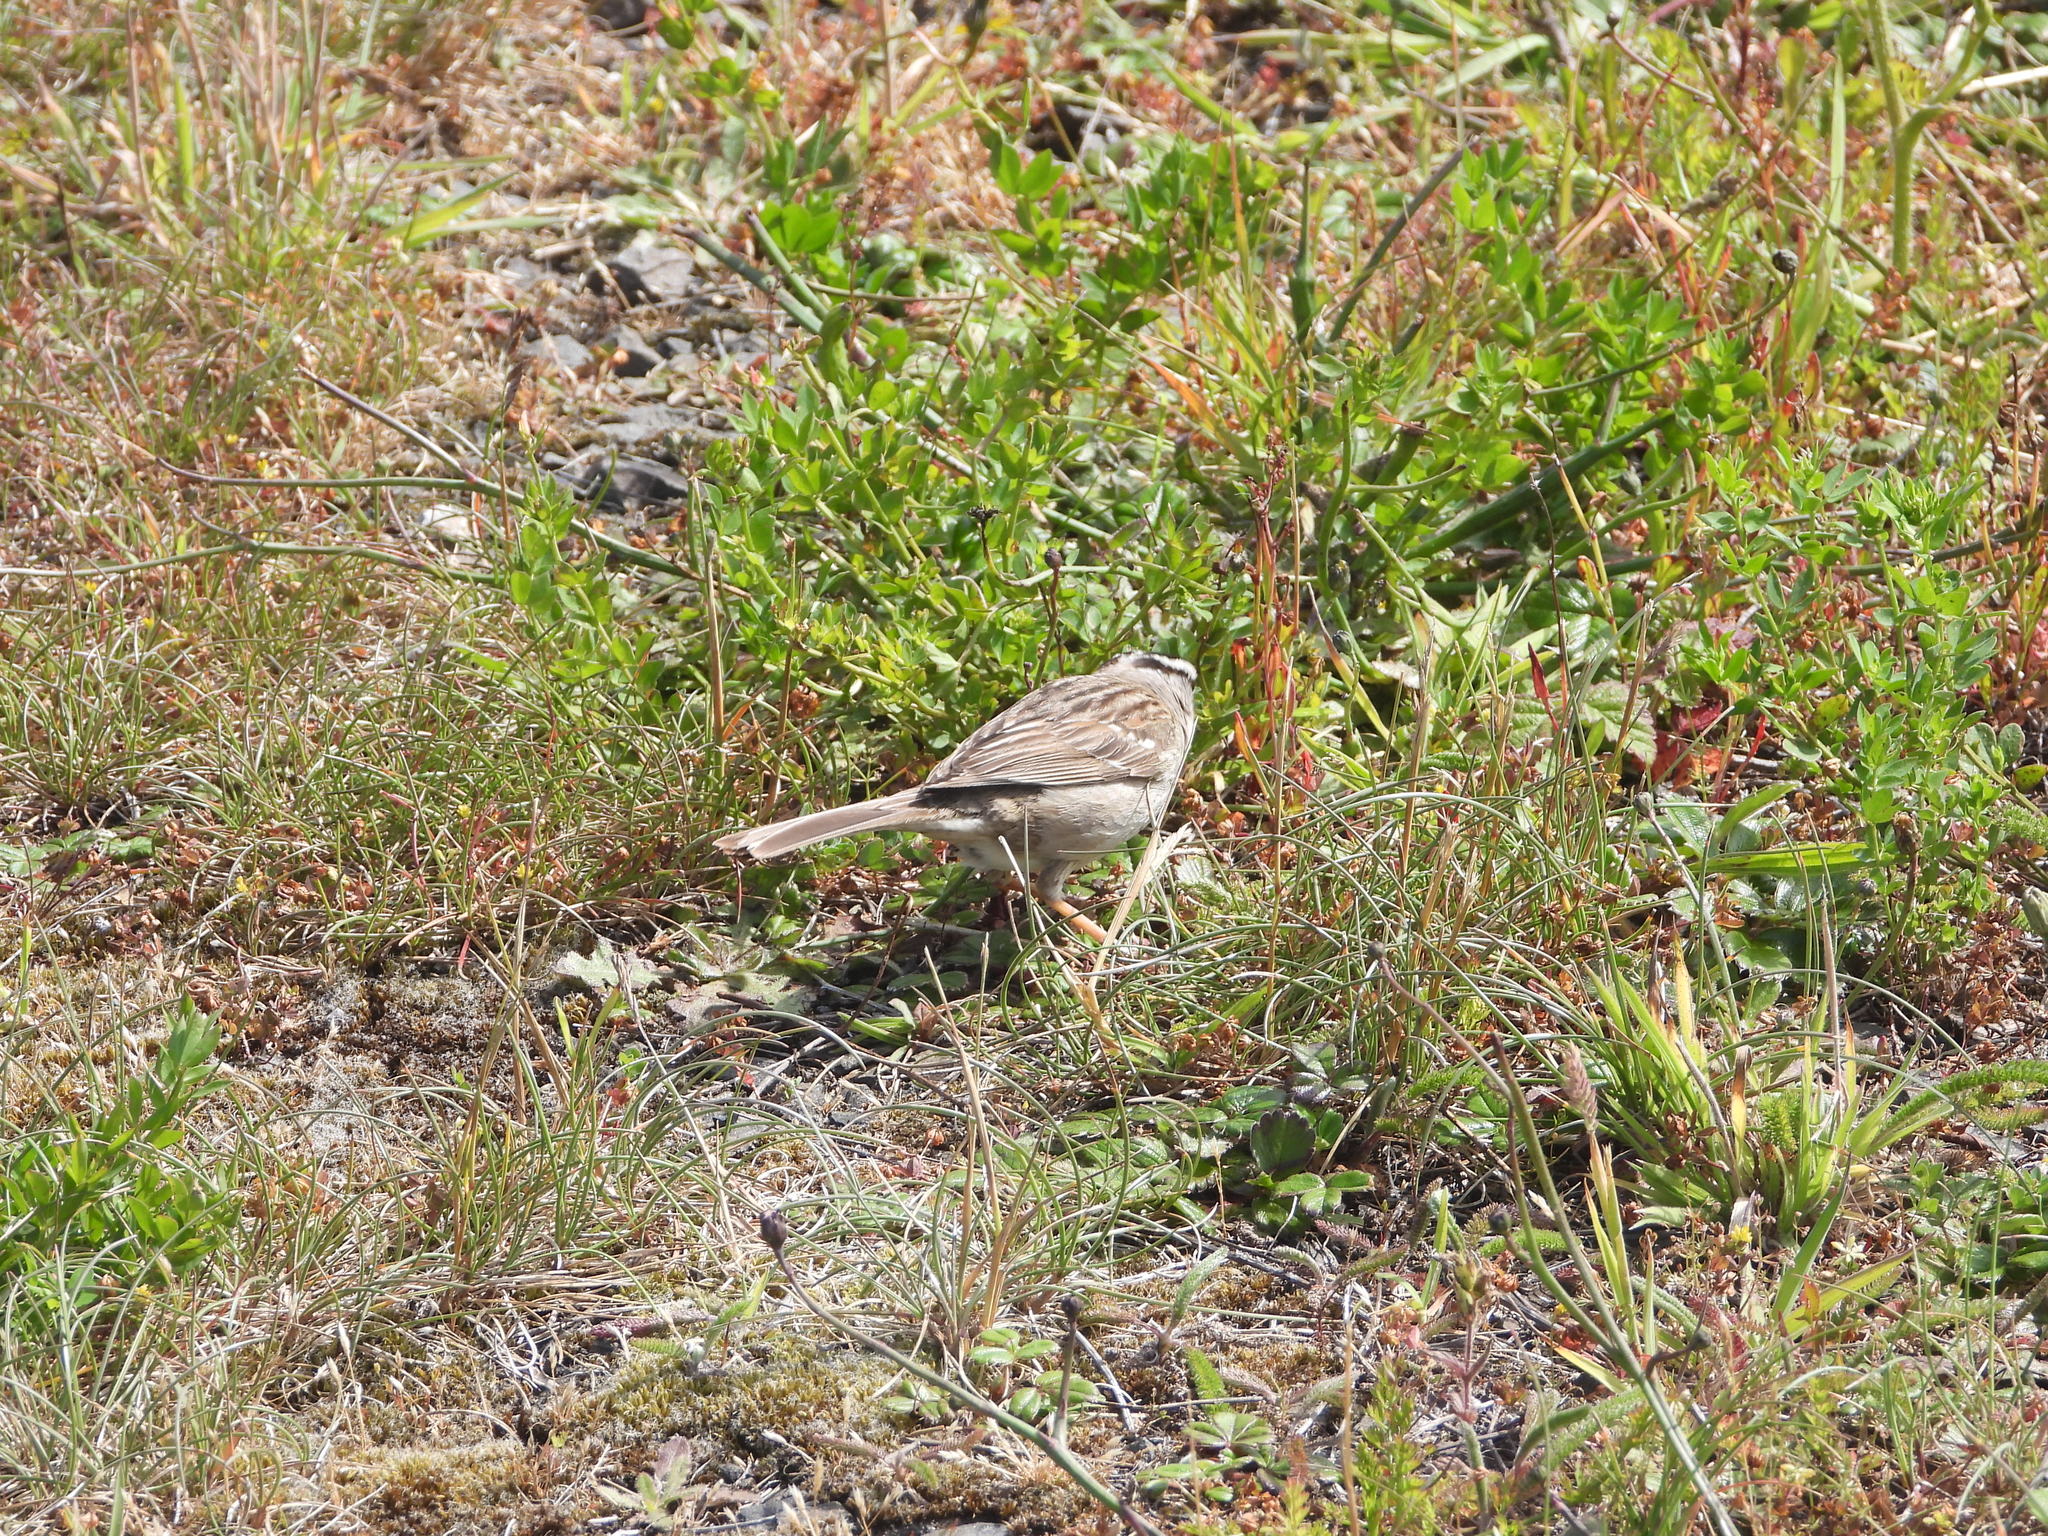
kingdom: Animalia
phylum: Chordata
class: Aves
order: Passeriformes
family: Passerellidae
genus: Zonotrichia
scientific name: Zonotrichia leucophrys
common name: White-crowned sparrow
